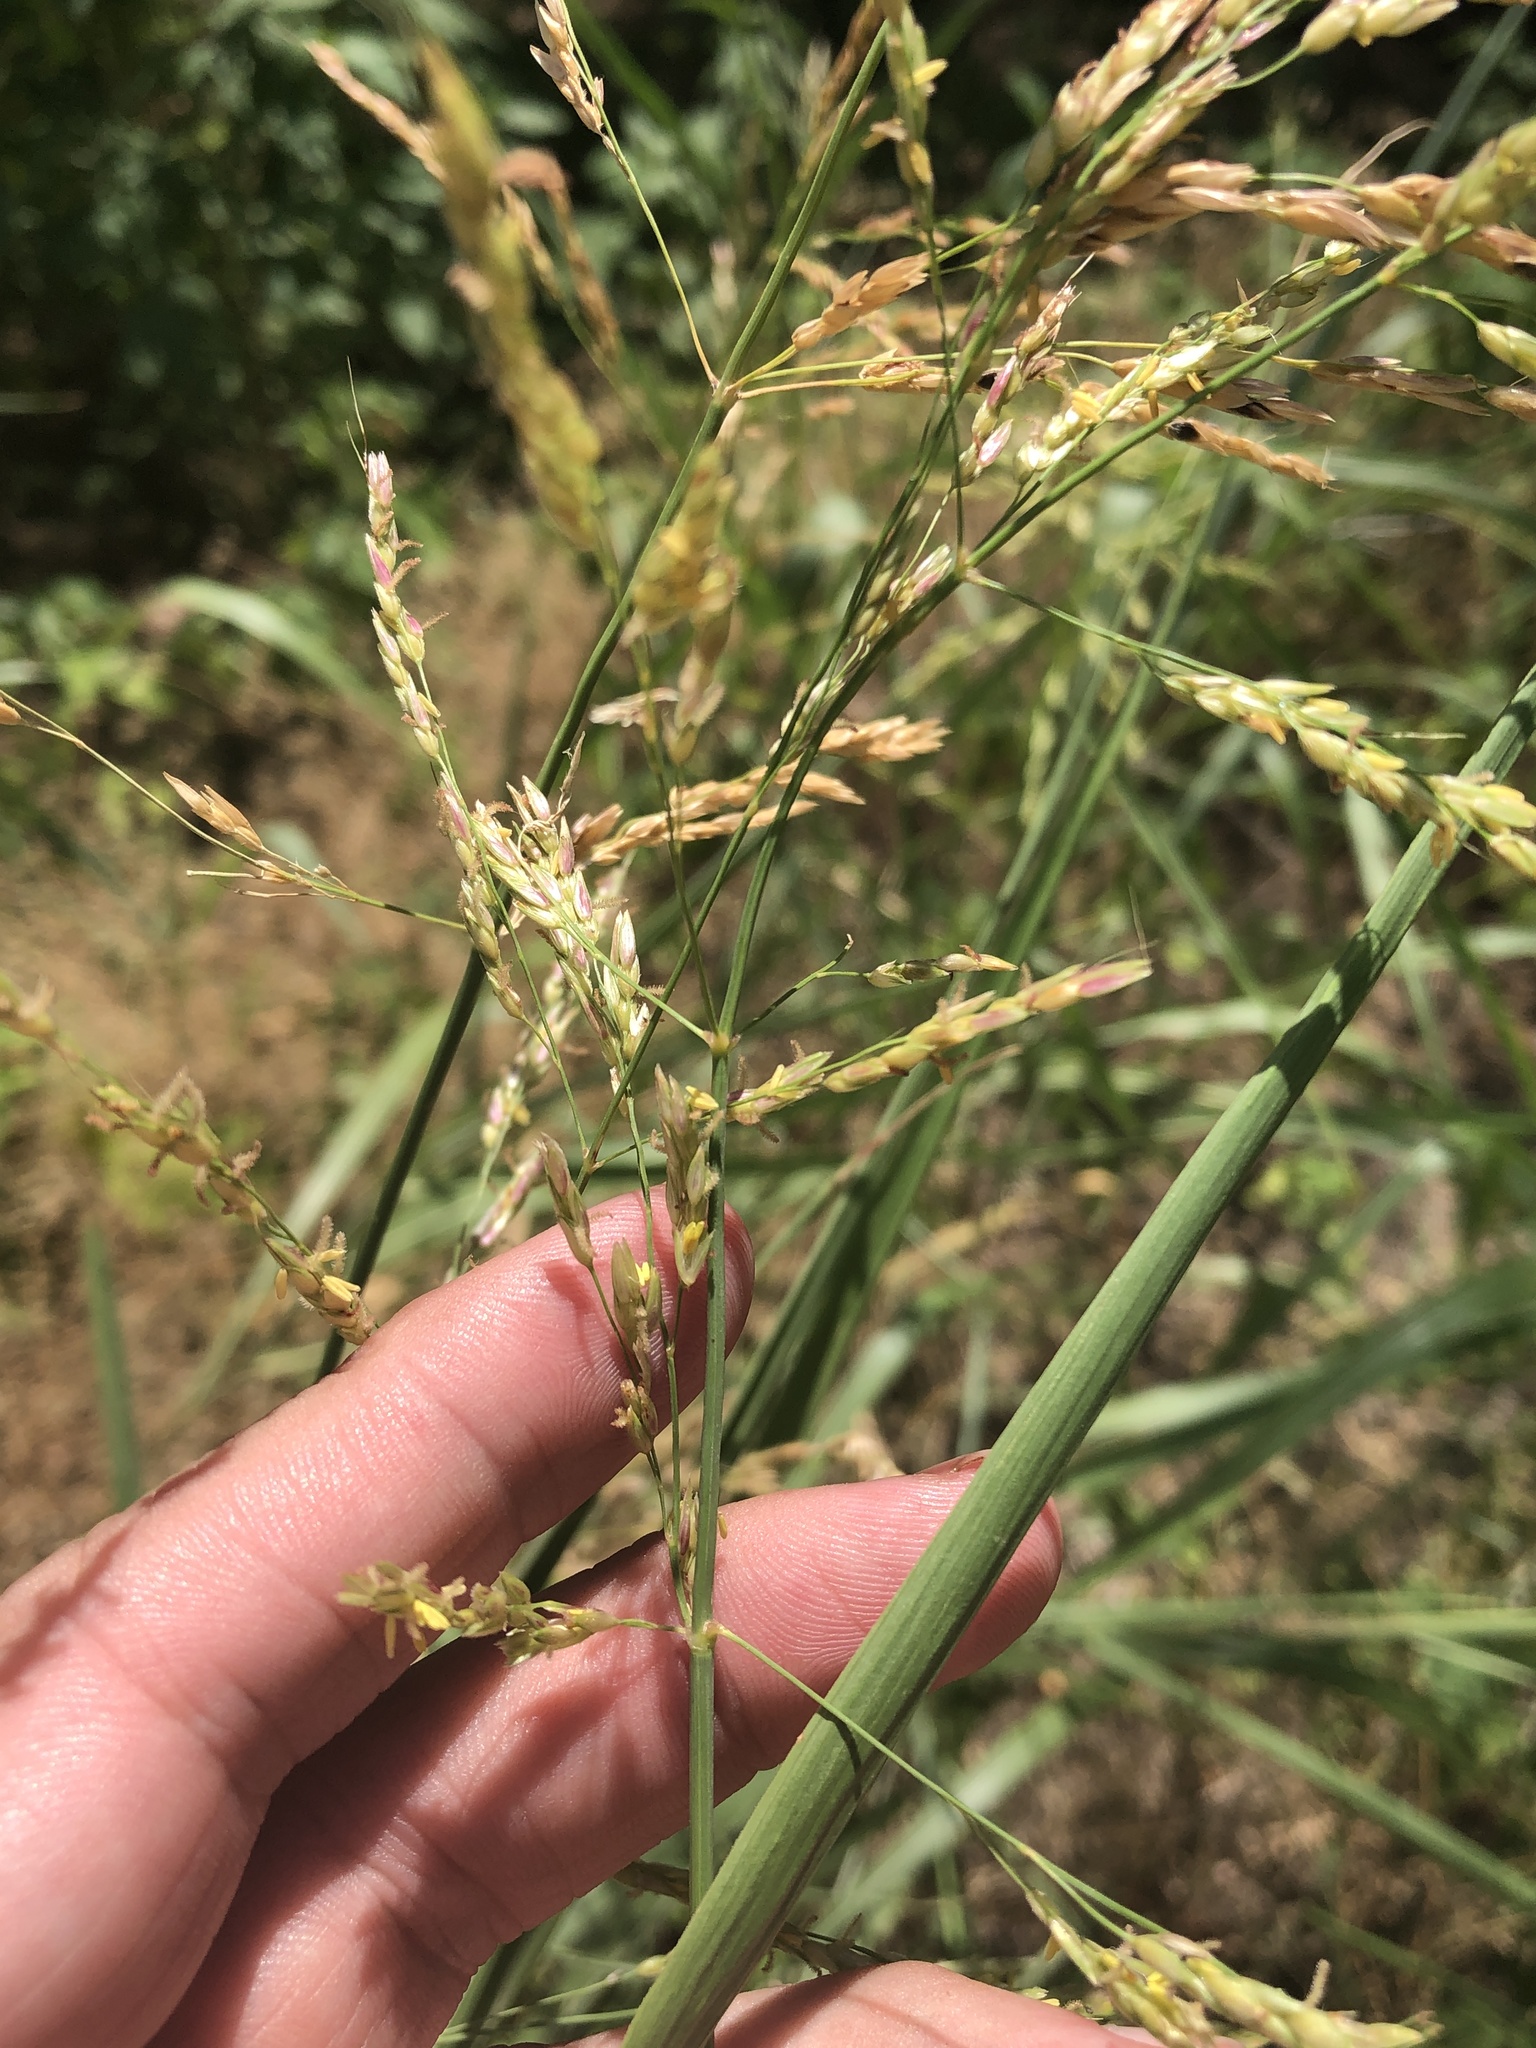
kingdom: Plantae
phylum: Tracheophyta
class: Liliopsida
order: Poales
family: Poaceae
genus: Sorghum
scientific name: Sorghum halepense
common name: Johnson-grass
